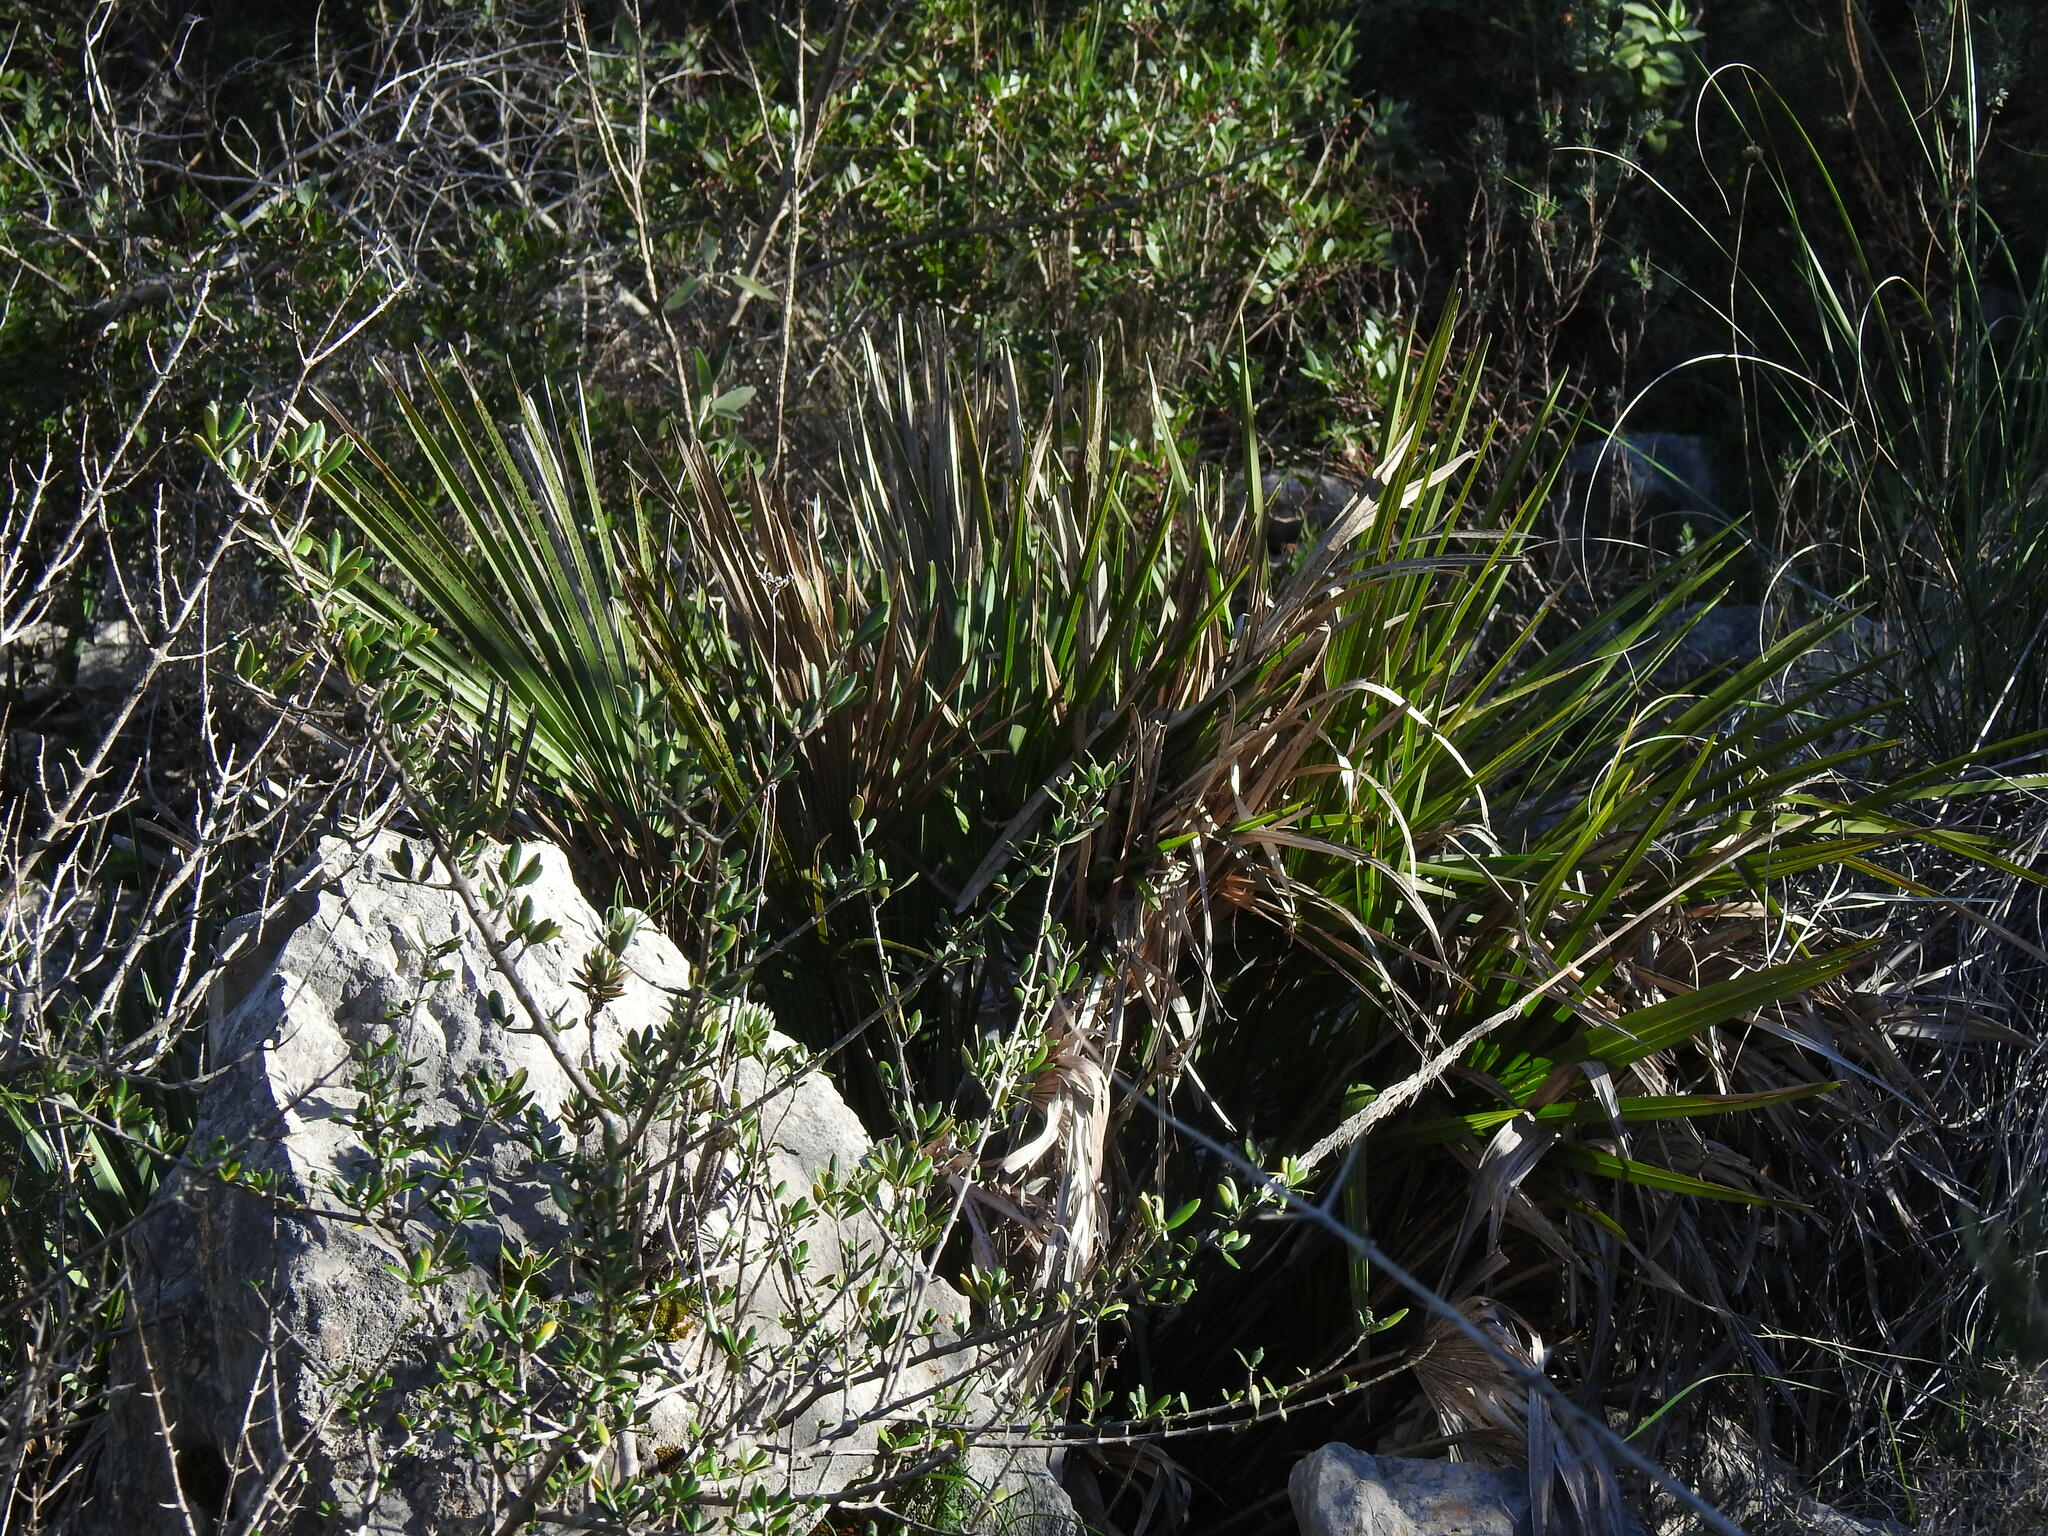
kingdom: Plantae
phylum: Tracheophyta
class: Liliopsida
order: Arecales
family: Arecaceae
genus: Chamaerops
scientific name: Chamaerops humilis
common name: Dwarf fan palm
